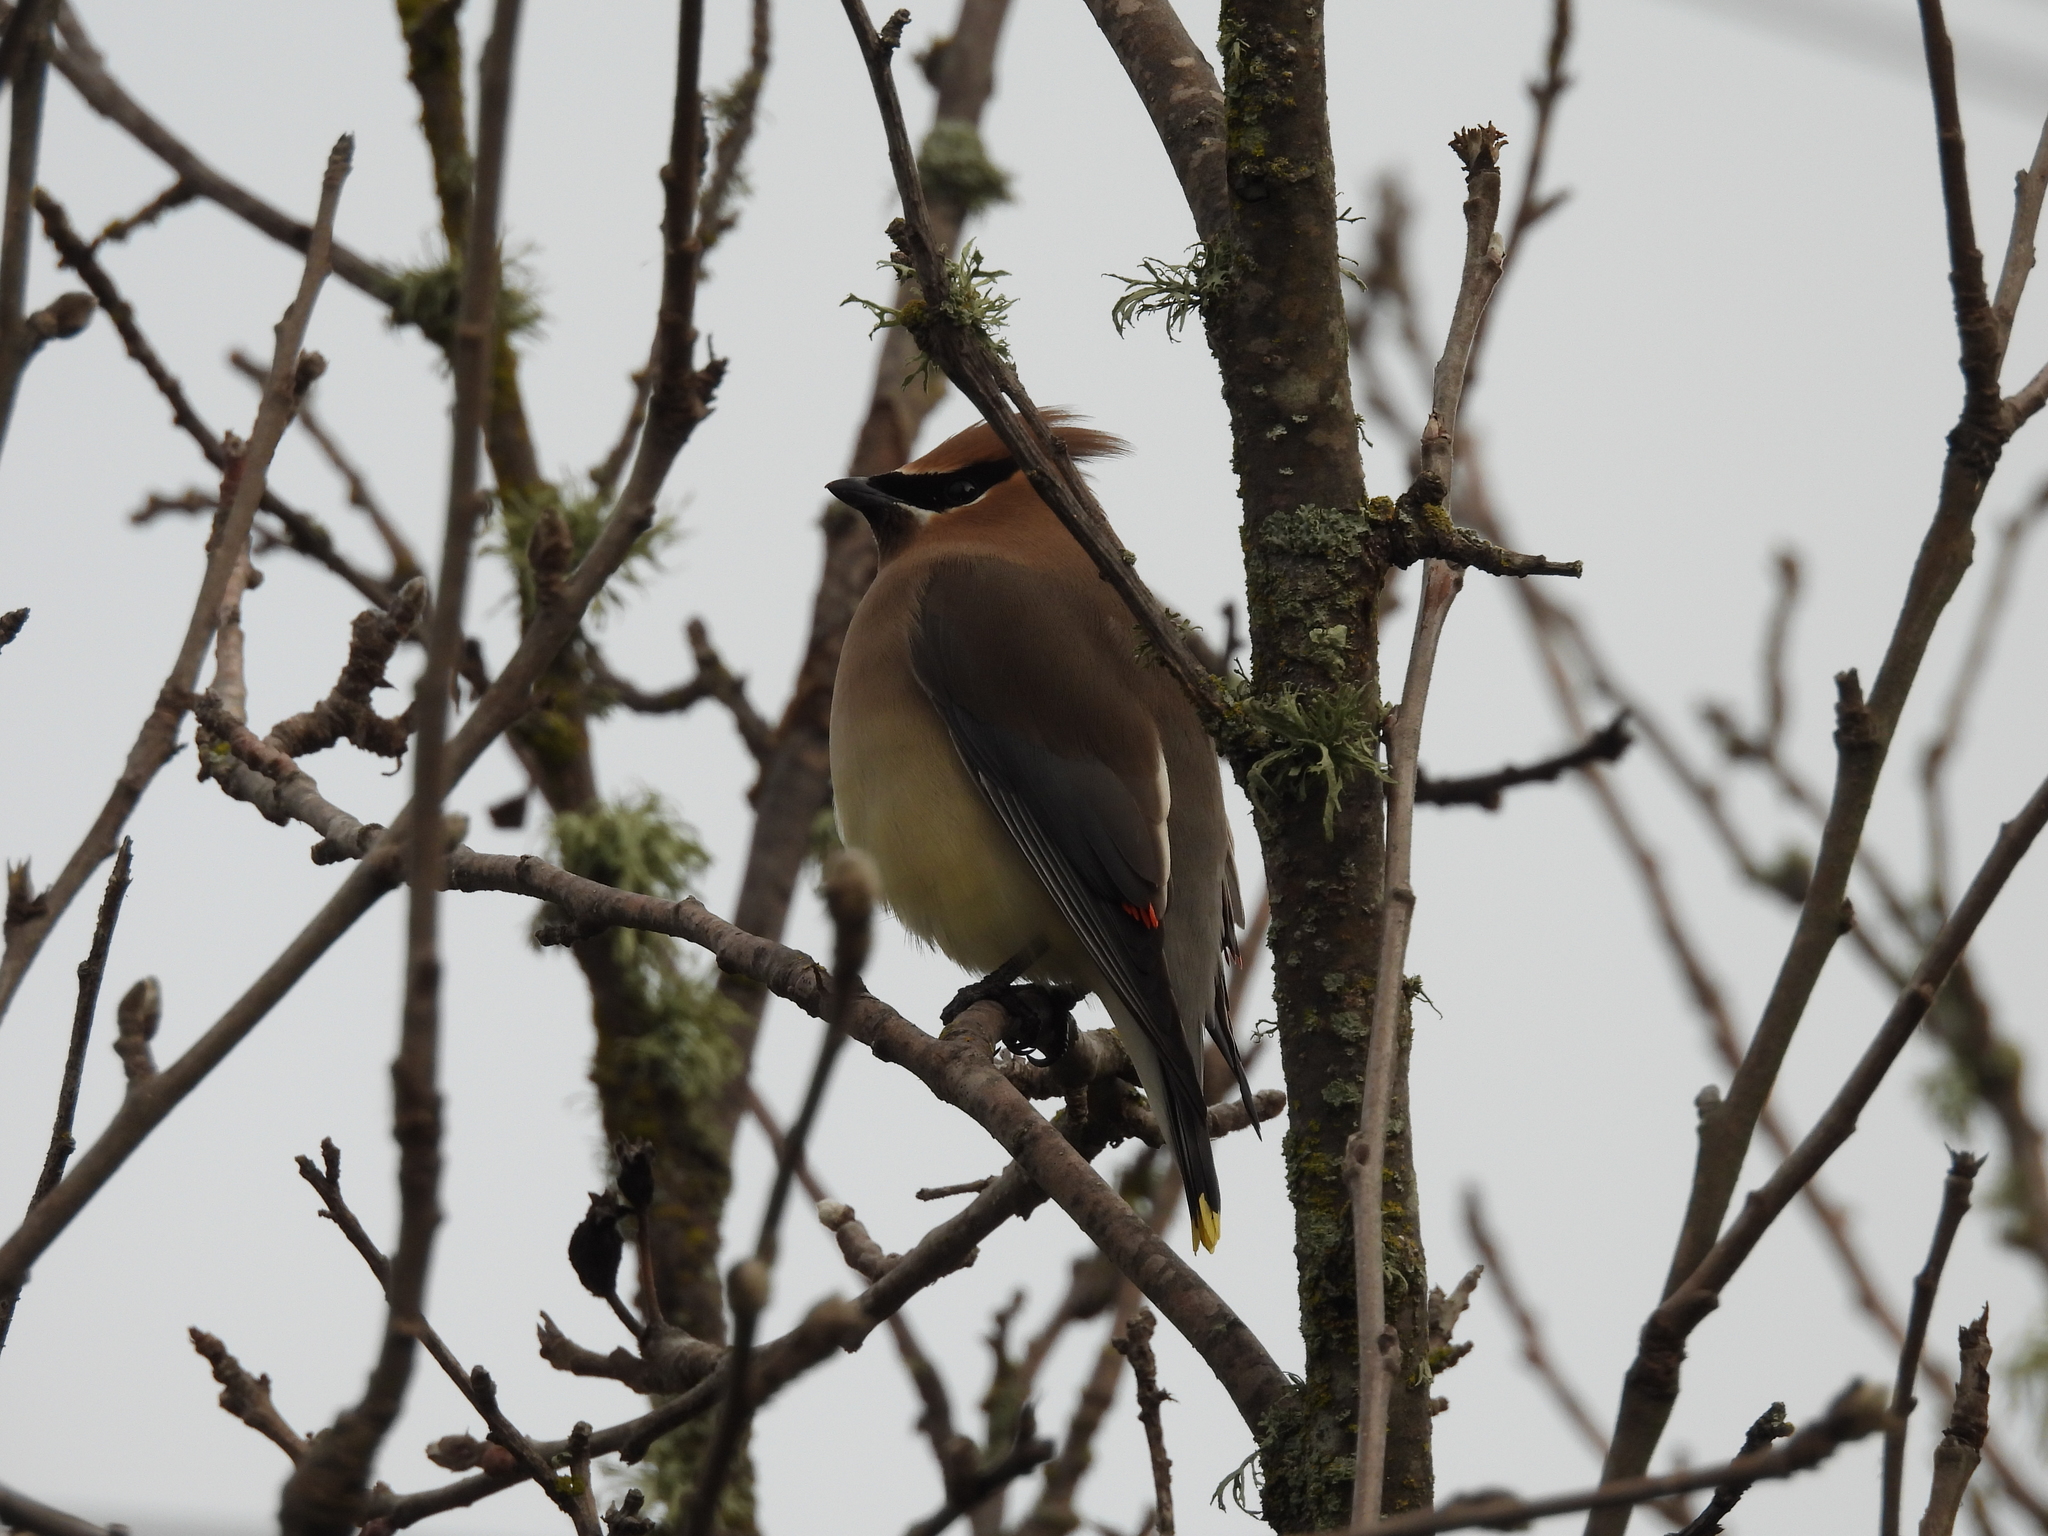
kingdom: Animalia
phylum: Chordata
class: Aves
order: Passeriformes
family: Bombycillidae
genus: Bombycilla
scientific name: Bombycilla cedrorum
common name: Cedar waxwing
